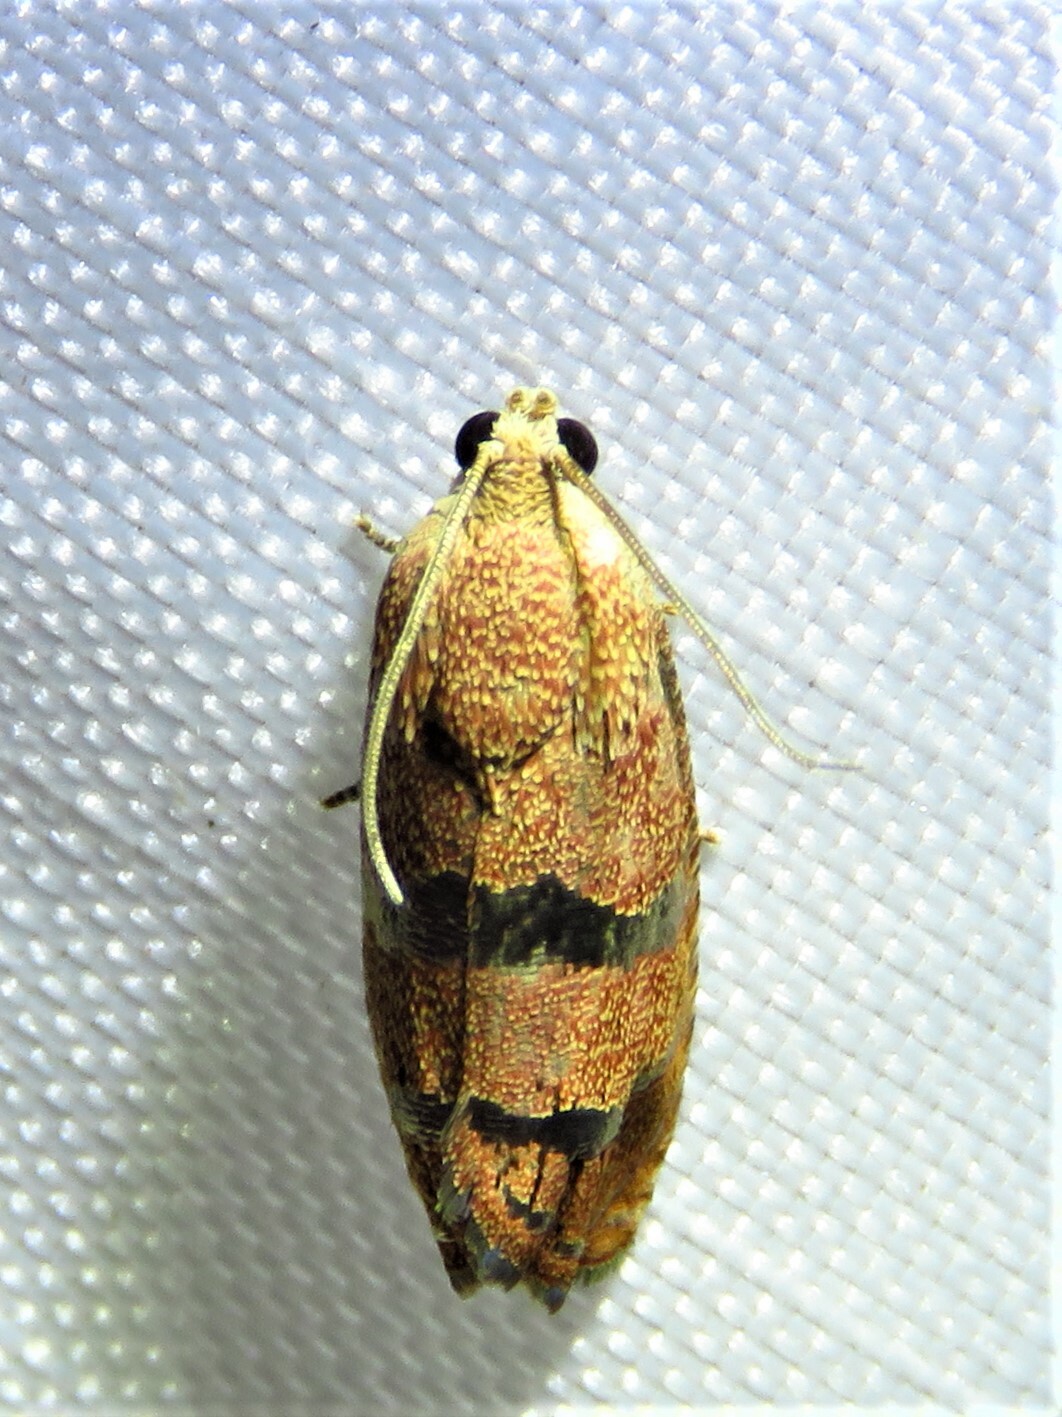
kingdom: Animalia
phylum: Arthropoda
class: Insecta
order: Lepidoptera
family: Tortricidae
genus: Cydia
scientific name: Cydia latiferreana
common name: Filbertworm moth
